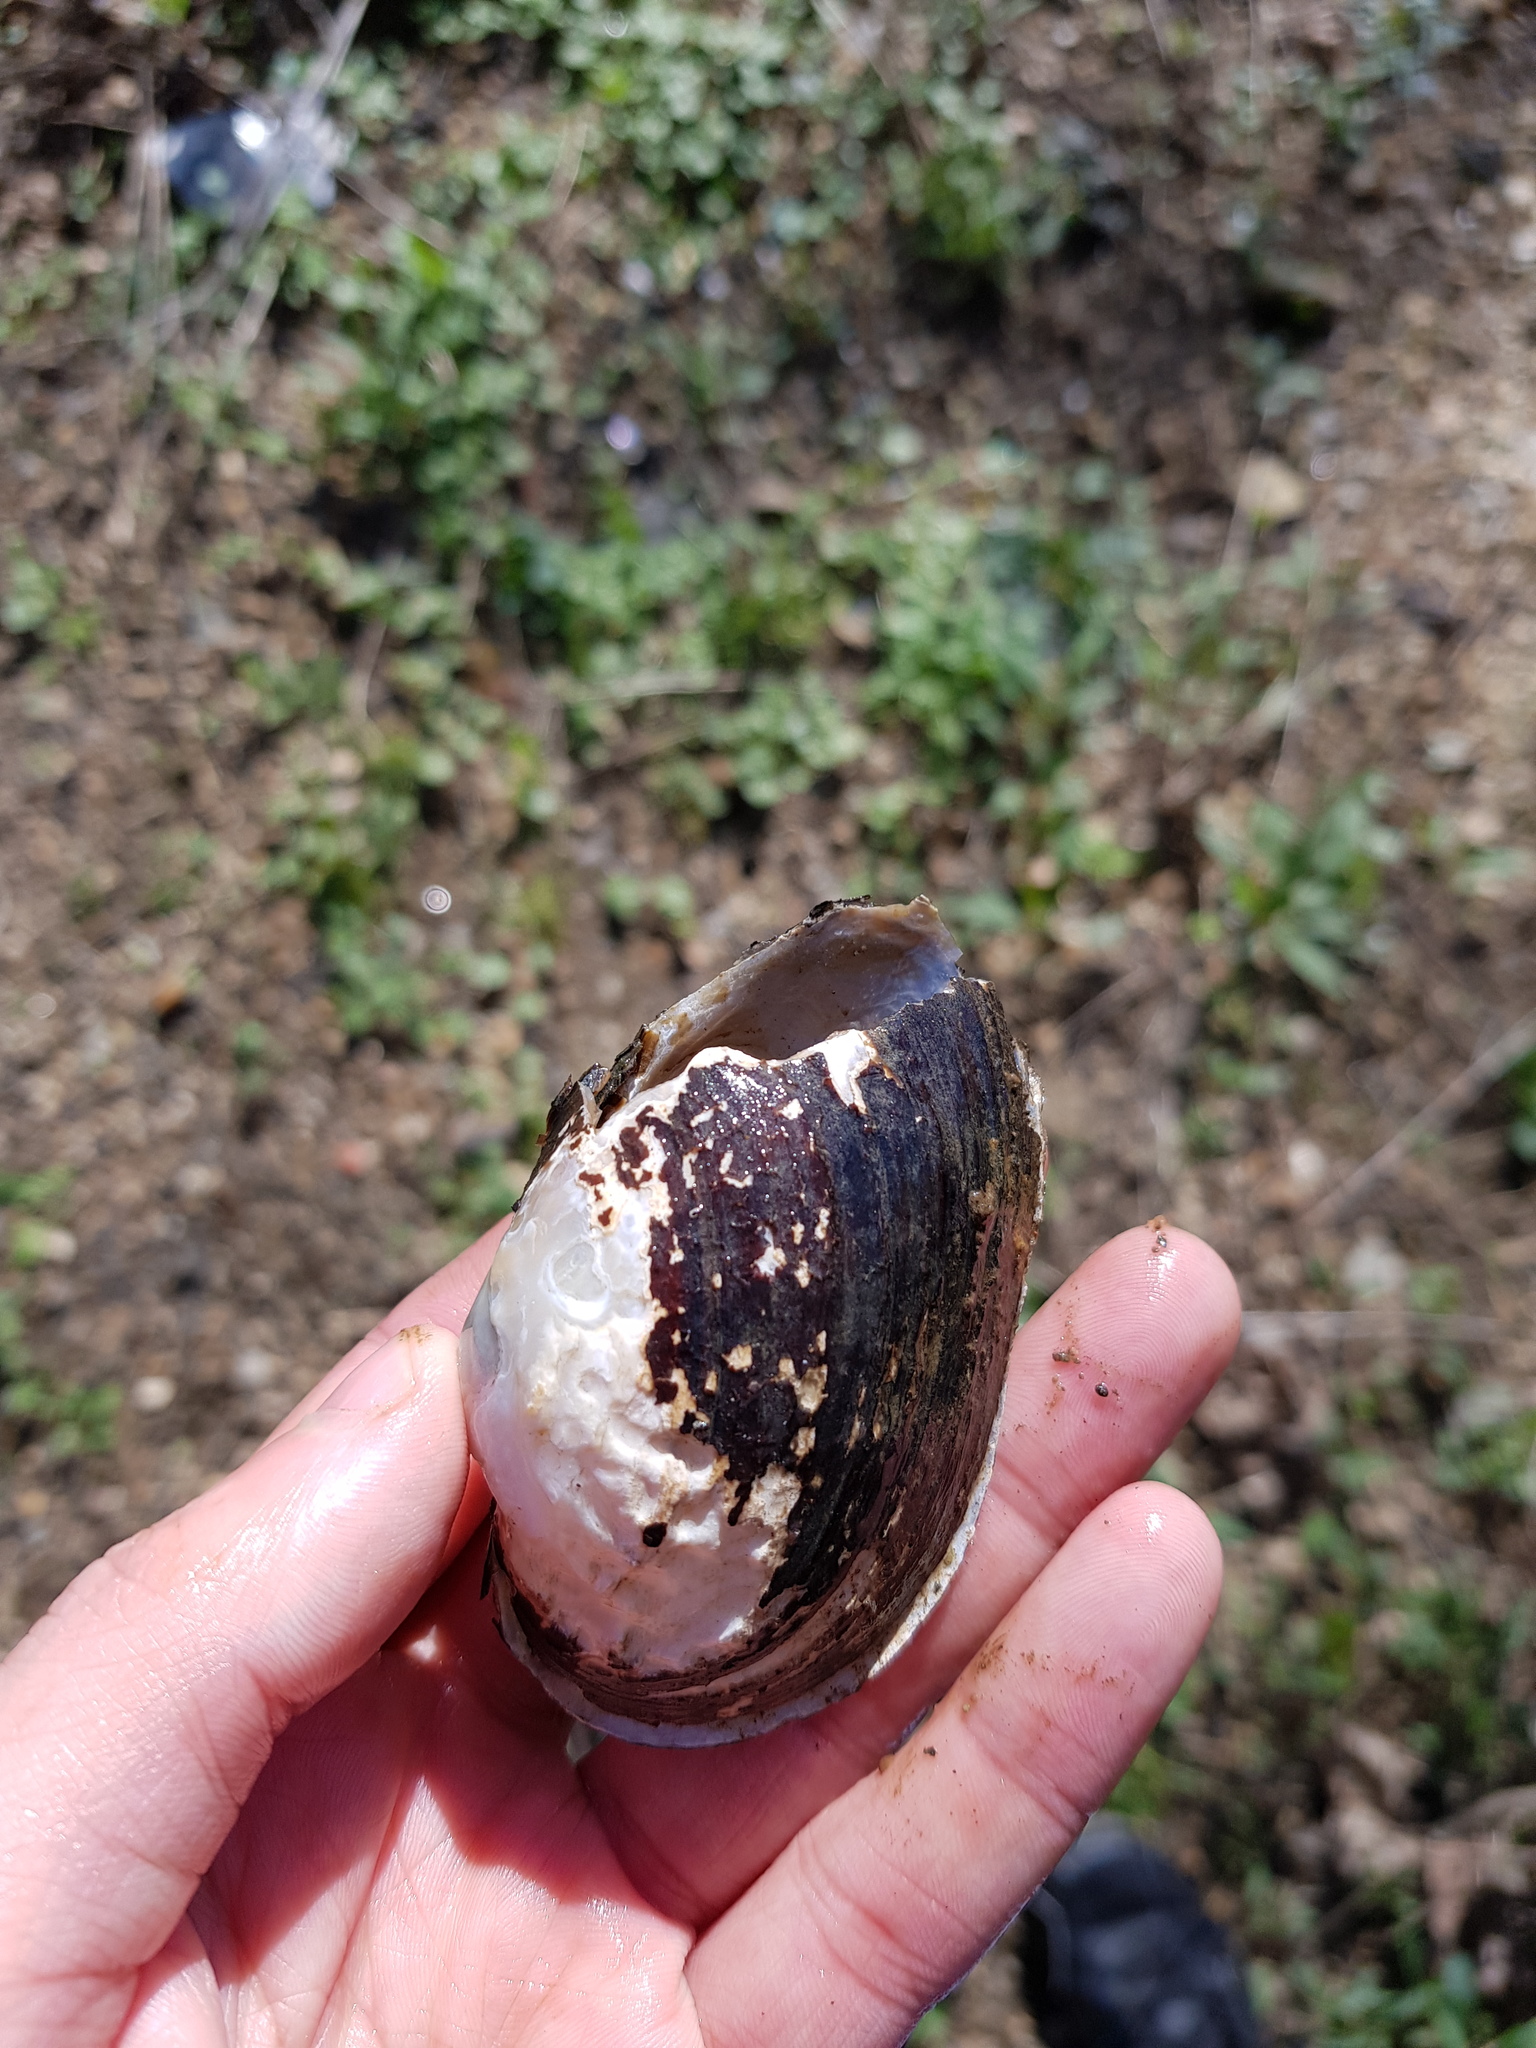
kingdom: Animalia
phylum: Mollusca
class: Bivalvia
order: Unionida
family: Unionidae
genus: Alasmidonta
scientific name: Alasmidonta undulata
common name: Triangle floater
